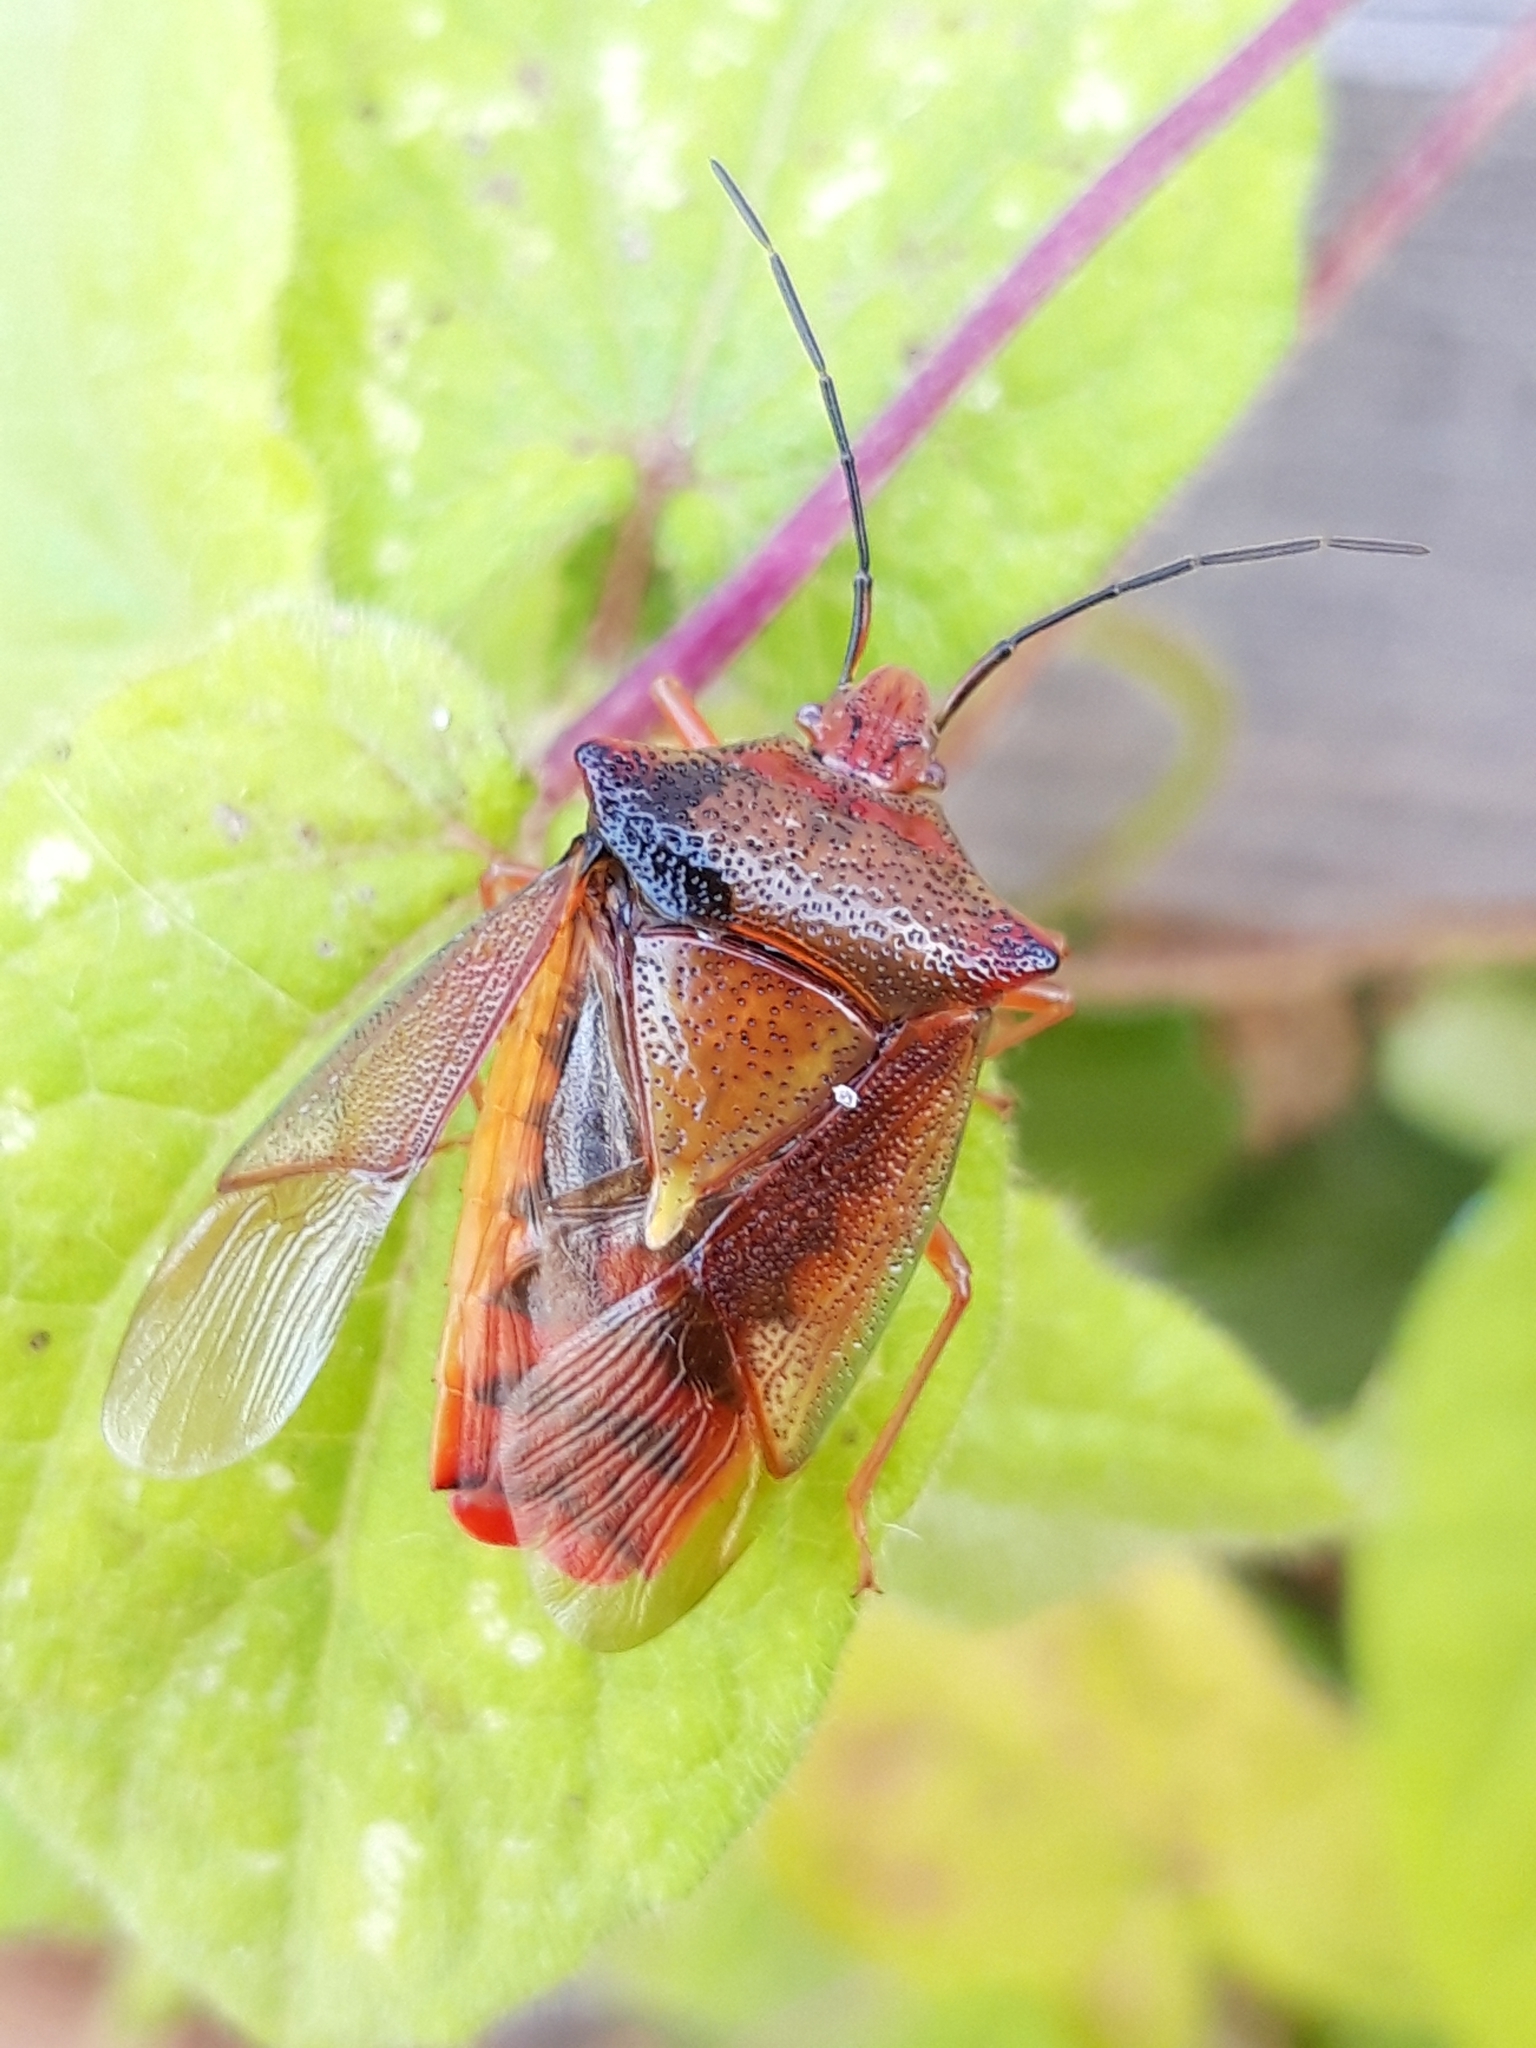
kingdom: Animalia
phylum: Arthropoda
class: Insecta
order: Hemiptera
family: Acanthosomatidae
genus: Acanthosoma
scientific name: Acanthosoma haemorrhoidale
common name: Hawthorn shieldbug
